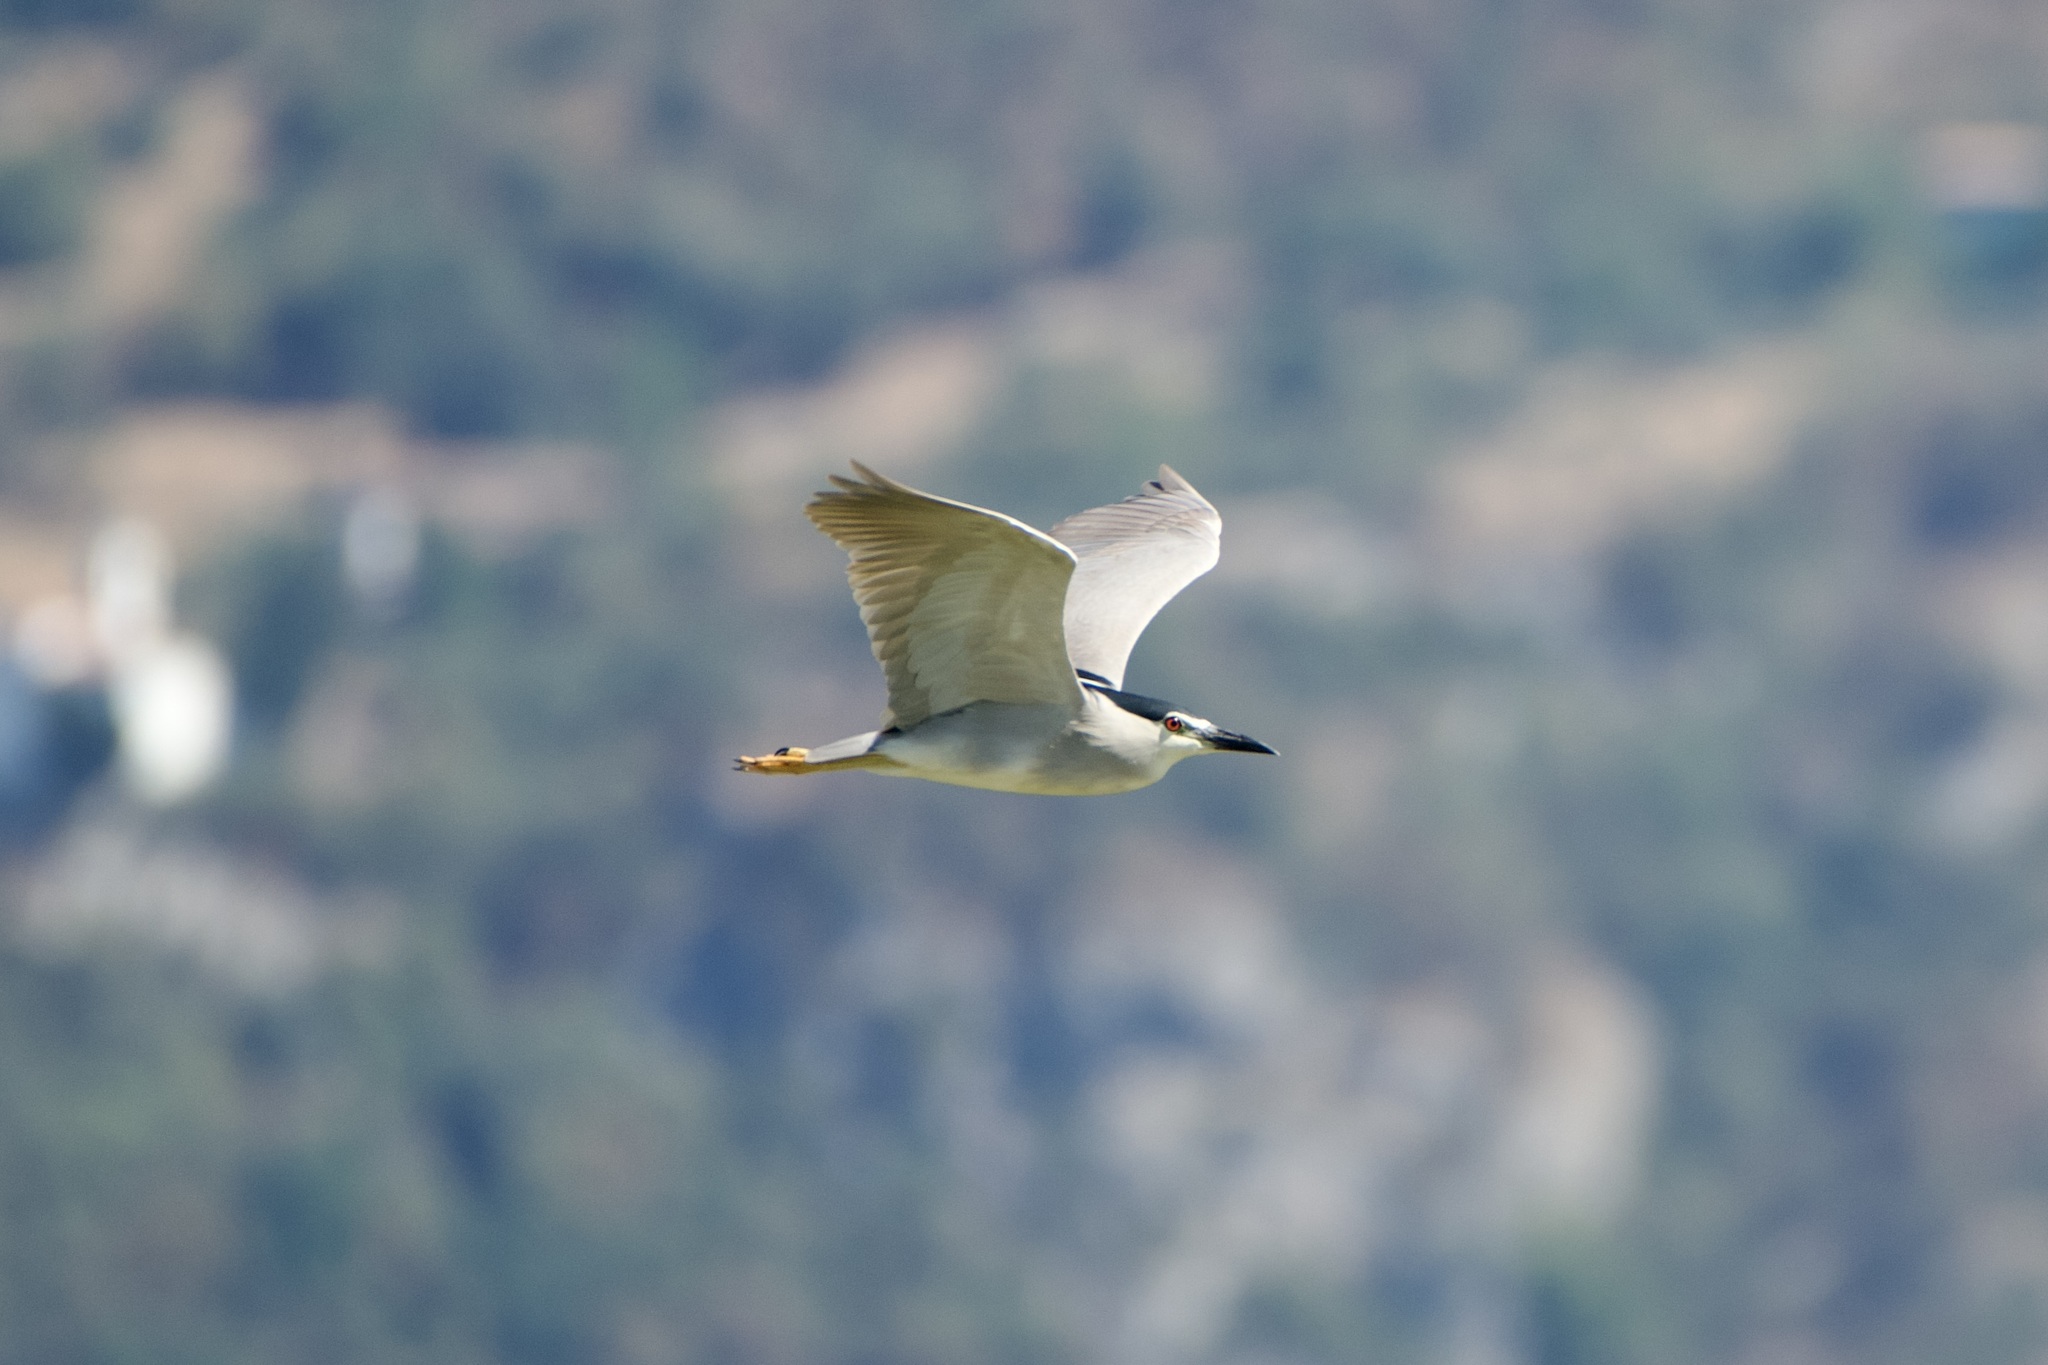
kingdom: Animalia
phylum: Chordata
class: Aves
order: Pelecaniformes
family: Ardeidae
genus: Nycticorax
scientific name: Nycticorax nycticorax
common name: Black-crowned night heron
